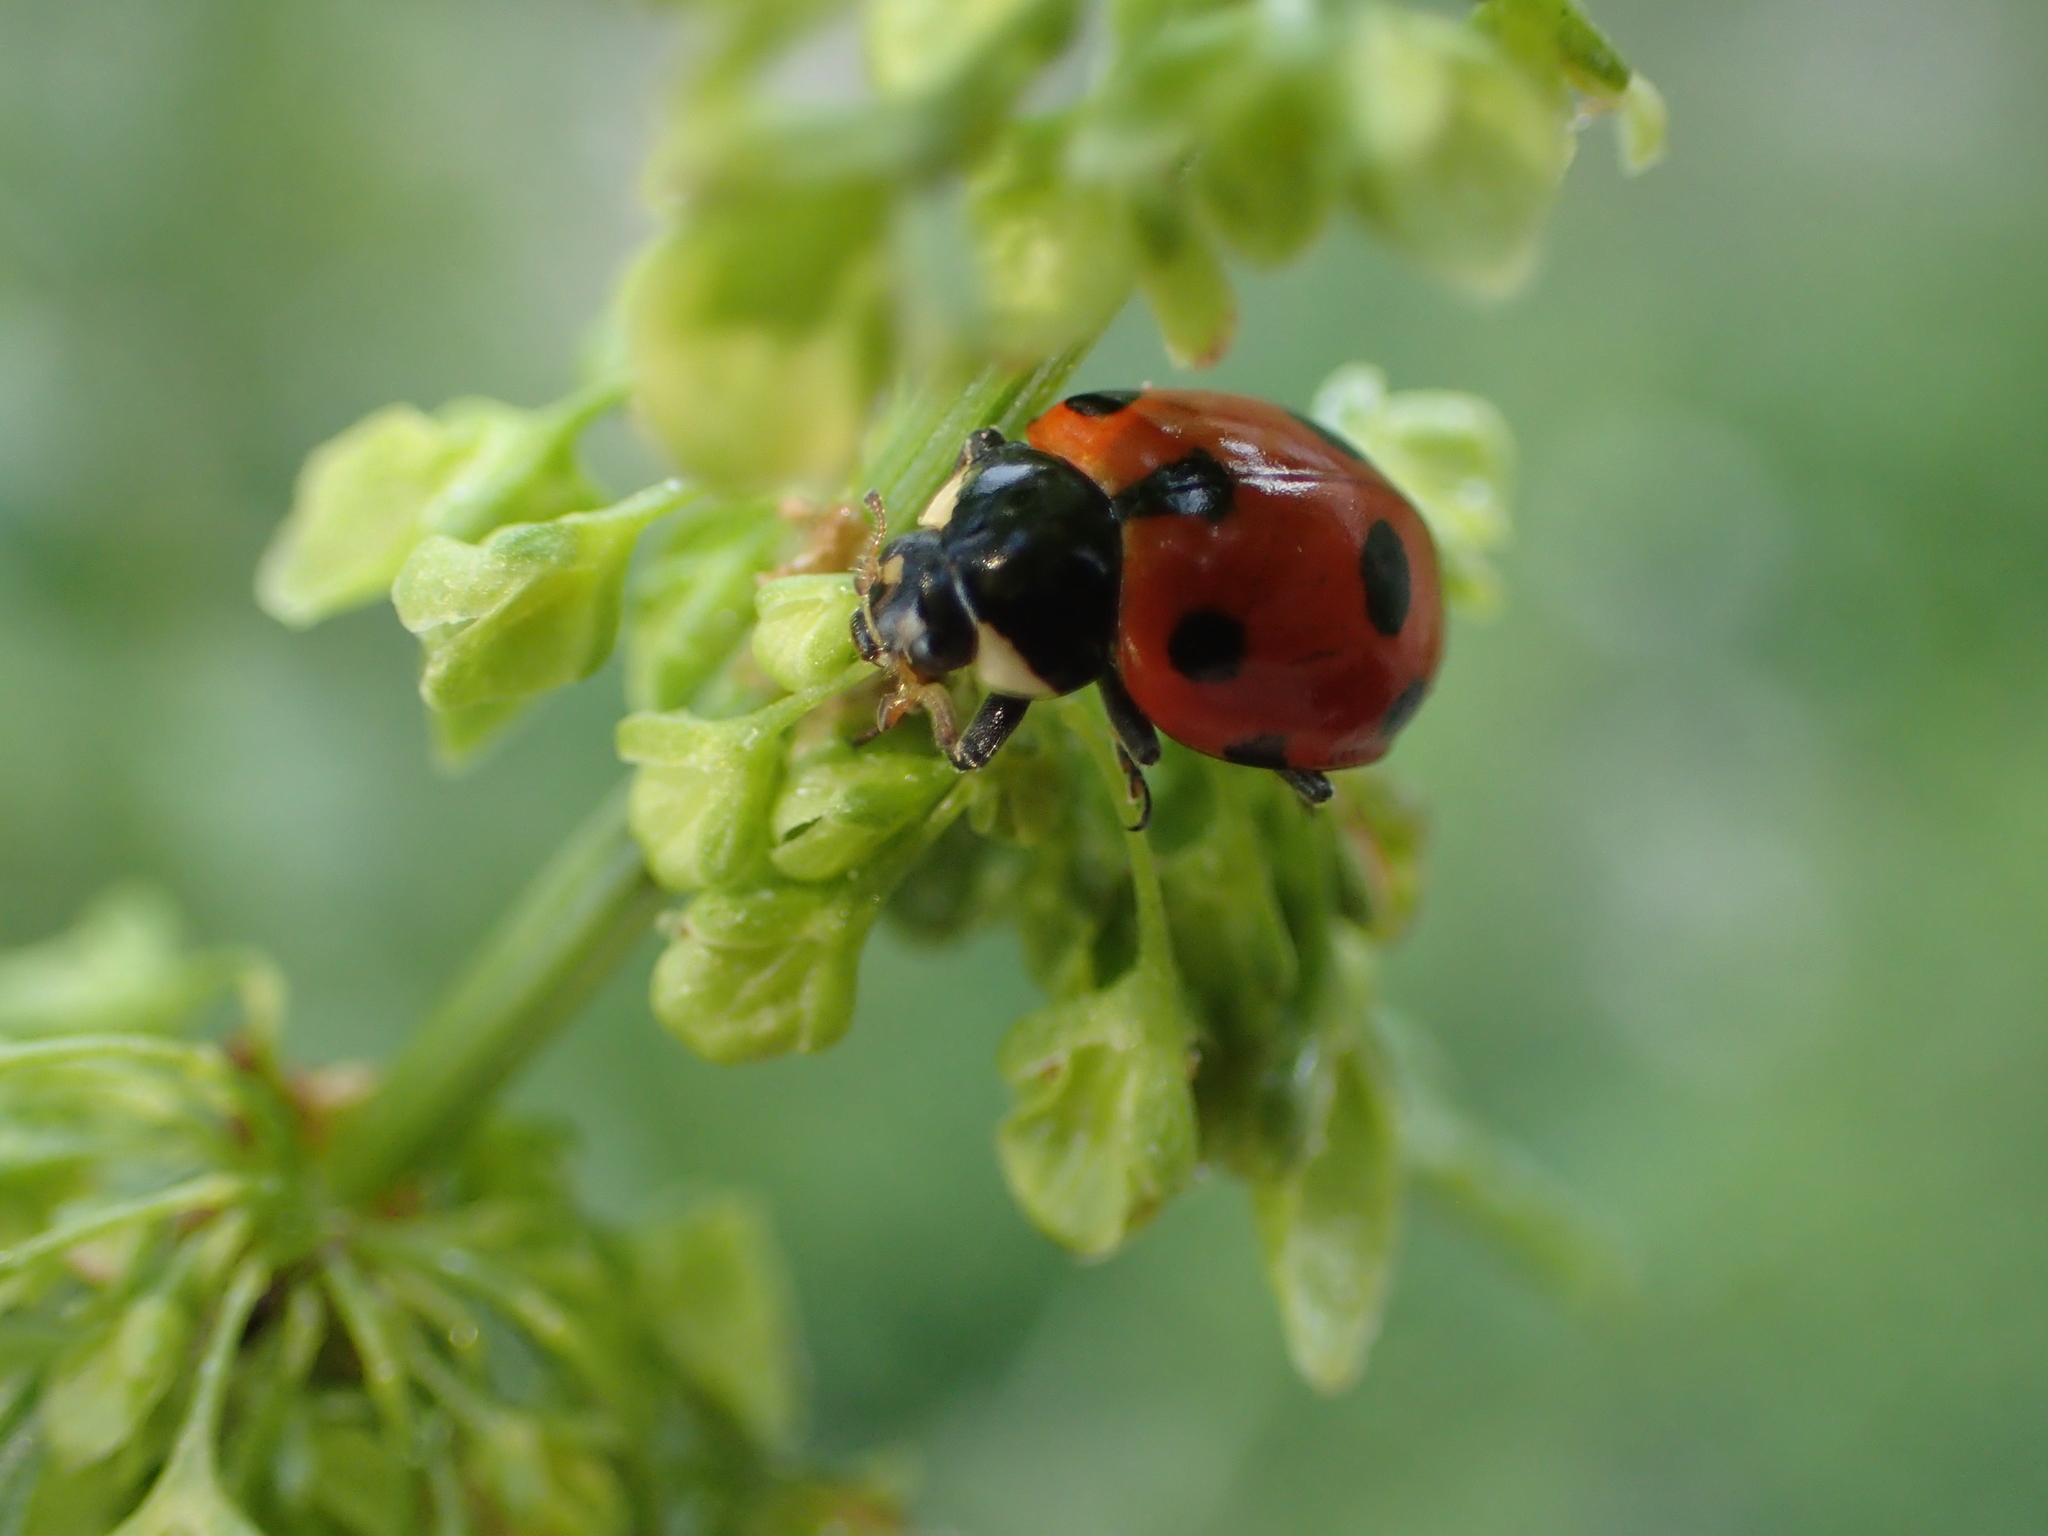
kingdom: Animalia
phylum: Arthropoda
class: Insecta
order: Coleoptera
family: Coccinellidae
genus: Ceratomegilla
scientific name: Ceratomegilla undecimnotata
